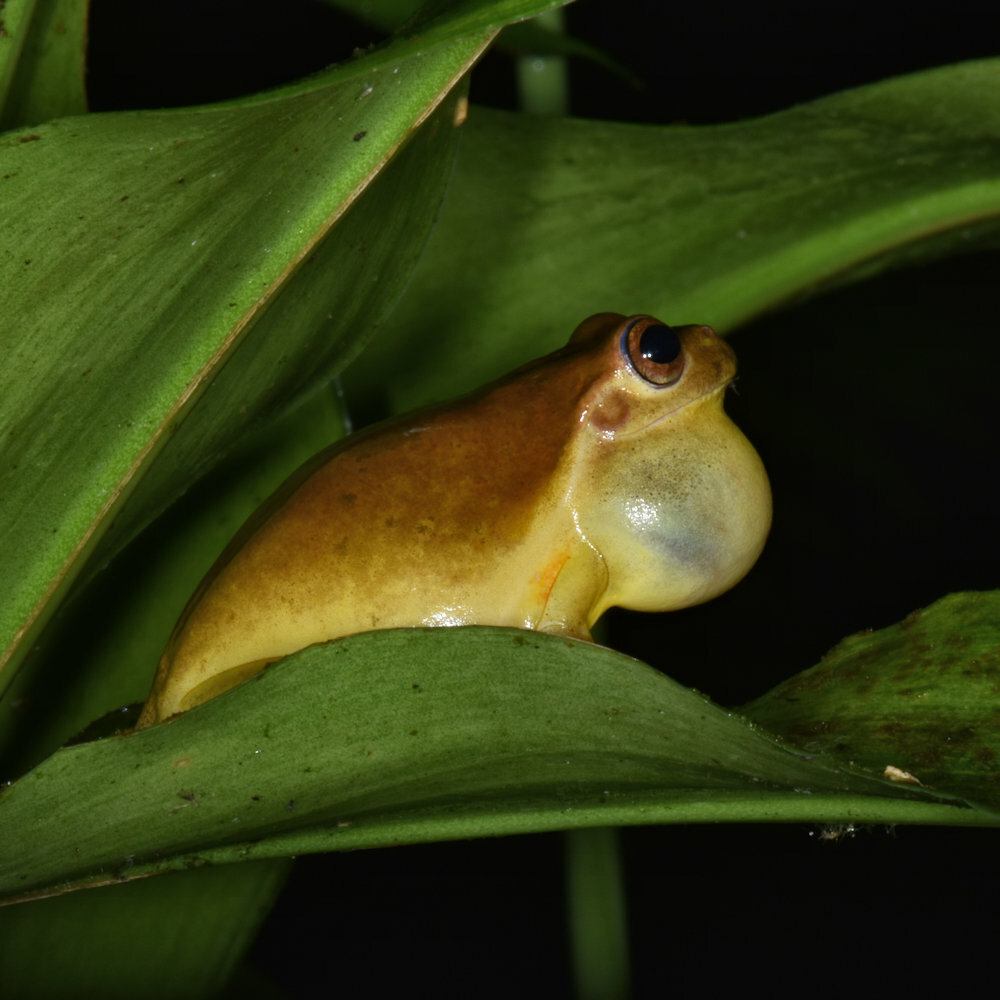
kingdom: Animalia
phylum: Chordata
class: Amphibia
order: Anura
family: Hylidae
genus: Tlalocohyla
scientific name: Tlalocohyla loquax
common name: Loquacious treefrog
